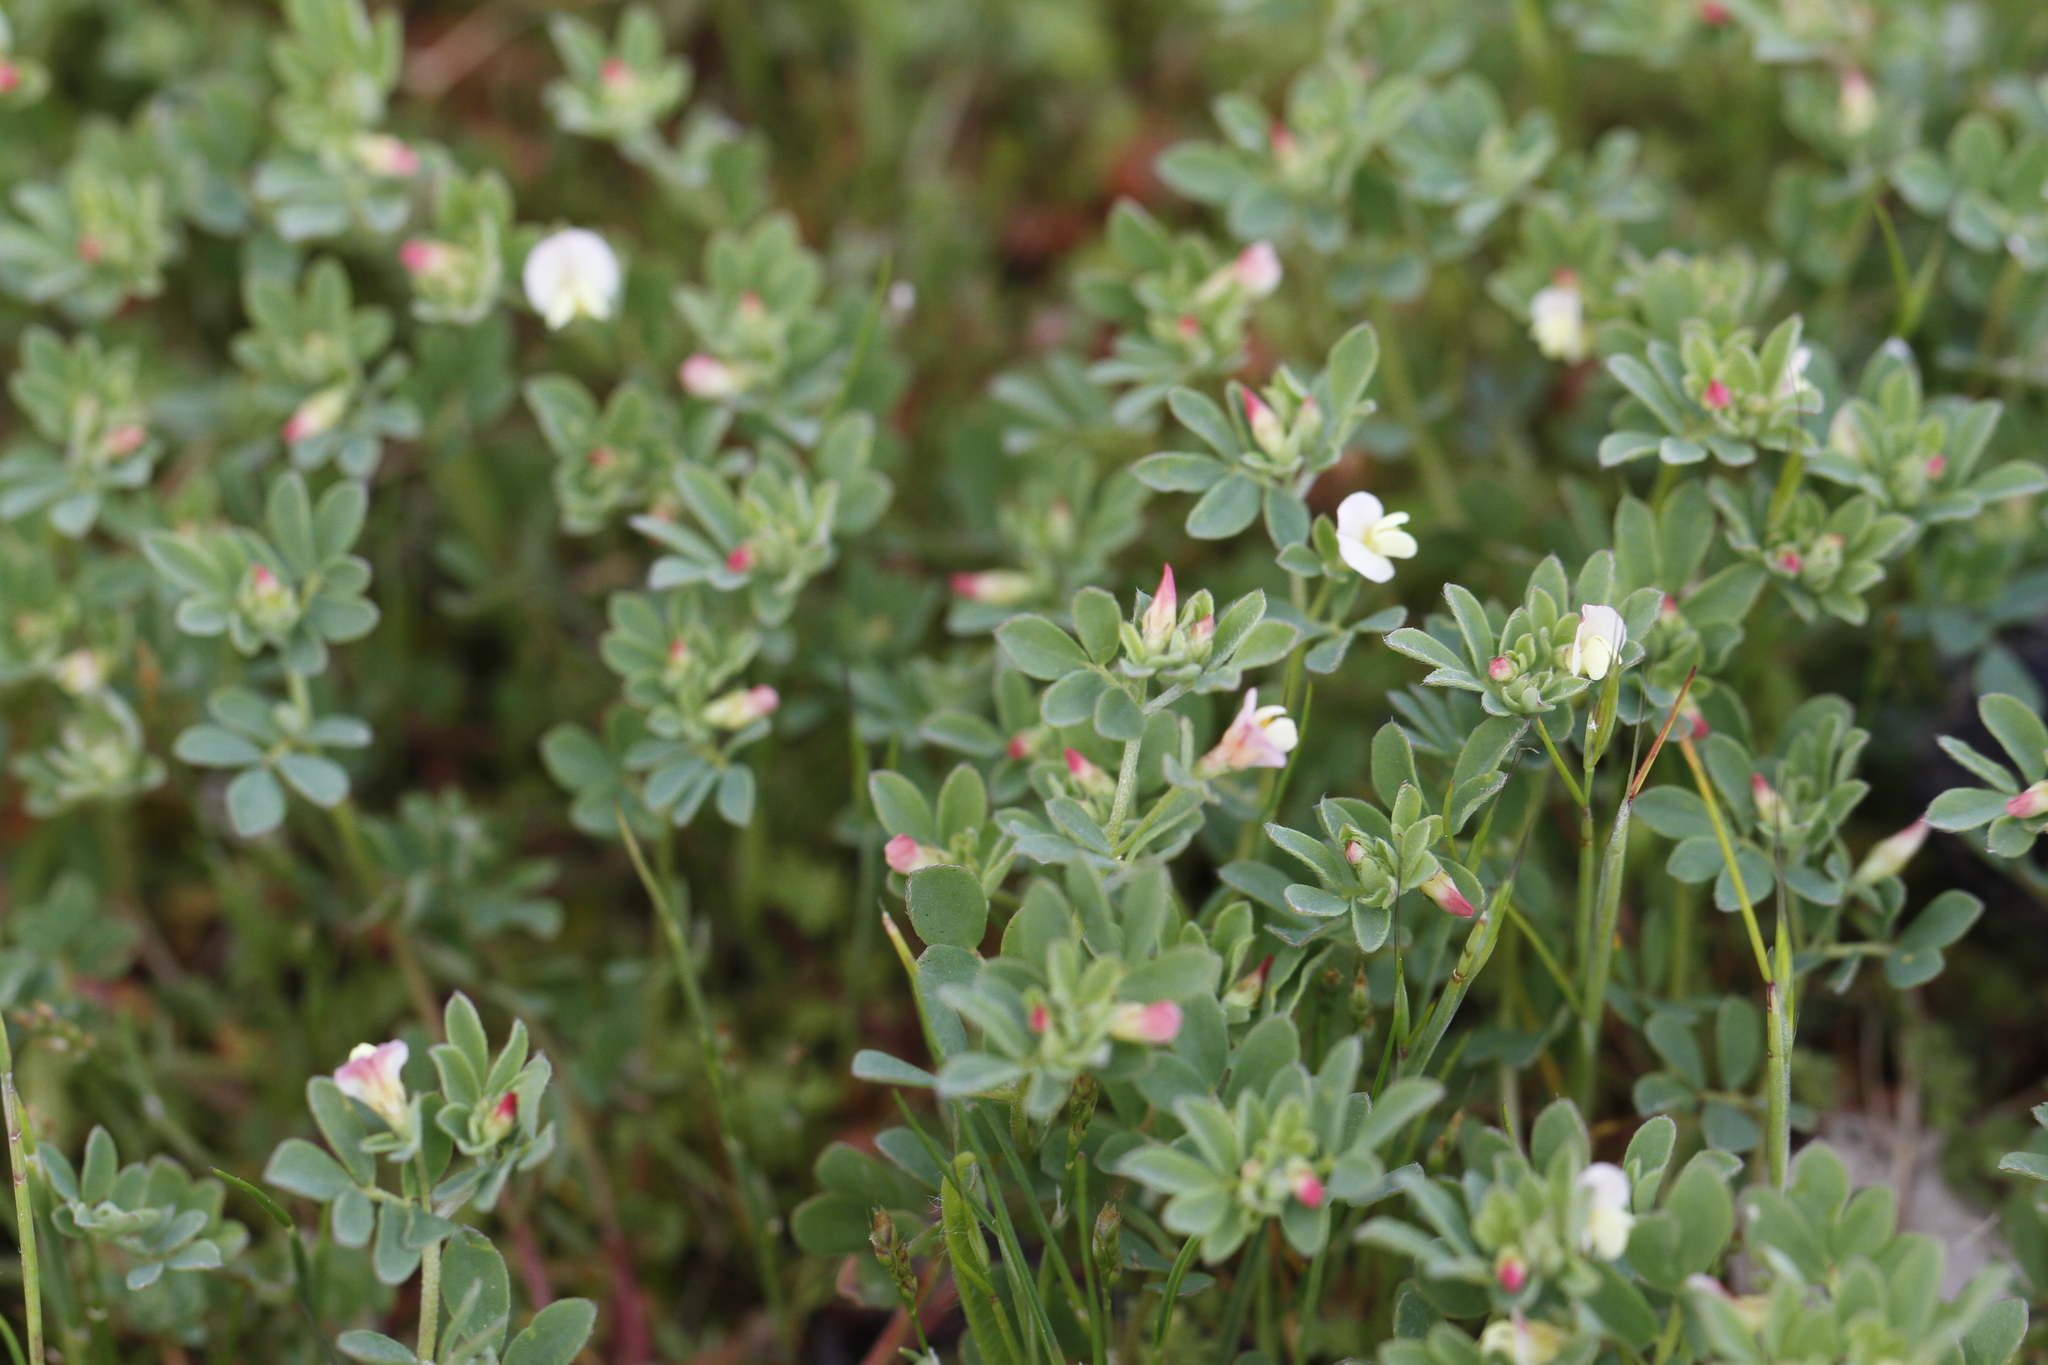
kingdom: Plantae
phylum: Tracheophyta
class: Magnoliopsida
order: Fabales
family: Fabaceae
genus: Acmispon
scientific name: Acmispon parviflorus
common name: Desert deer-vetch
